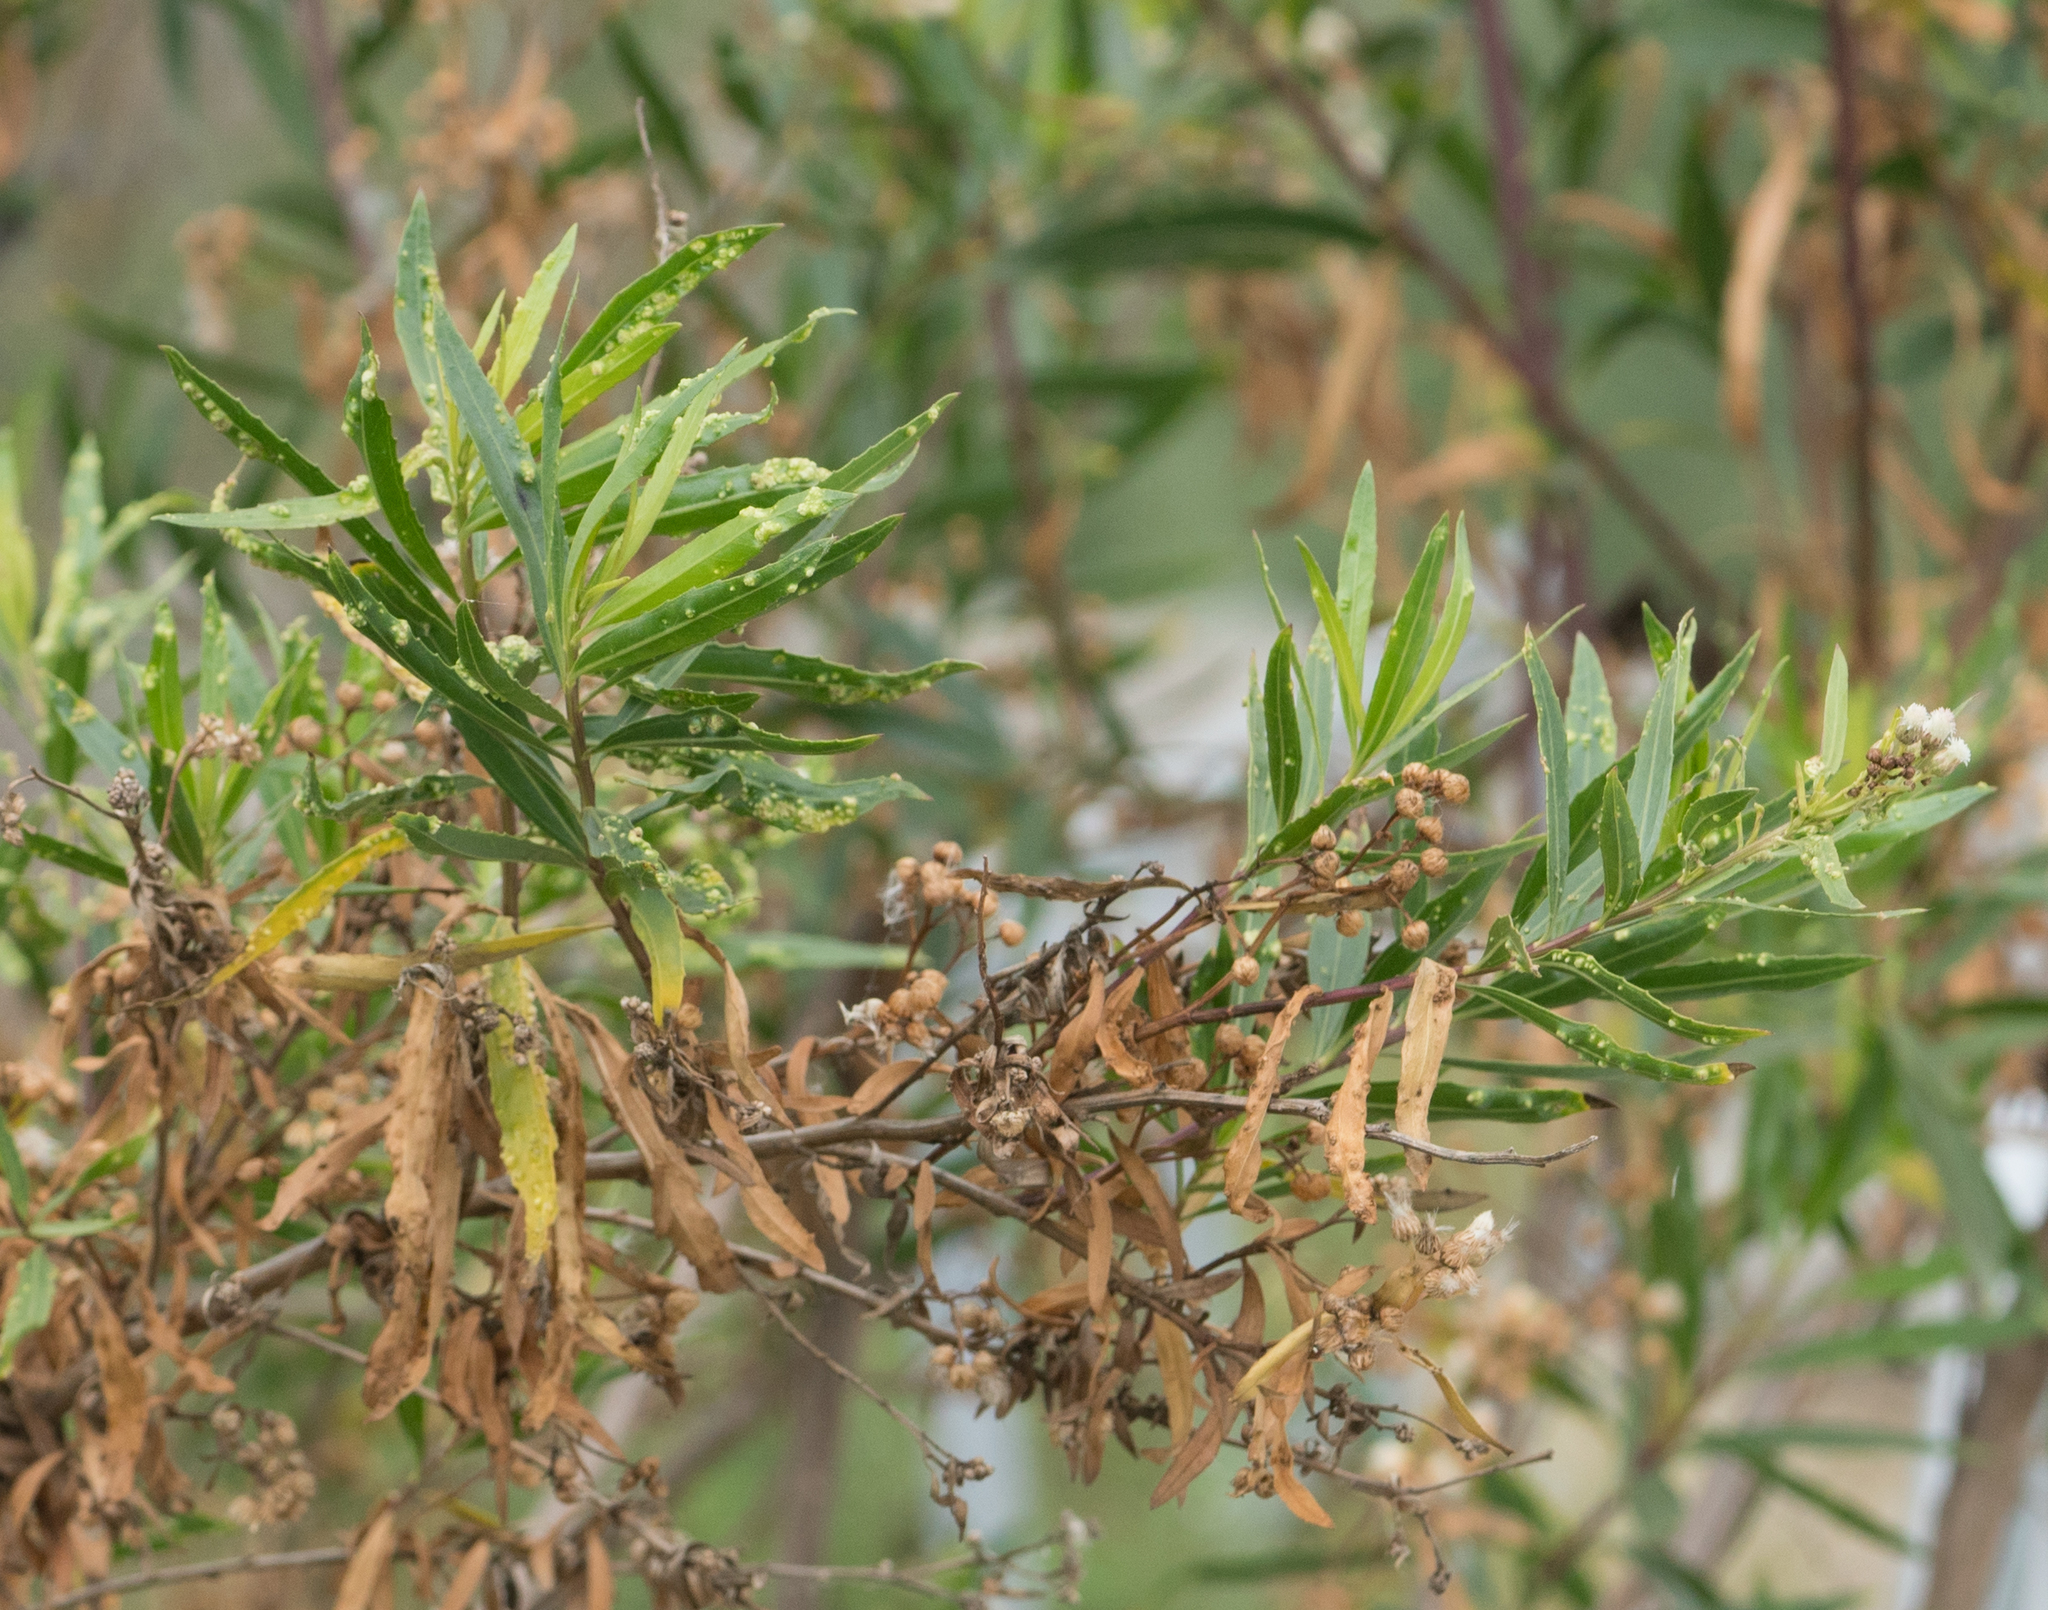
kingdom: Animalia
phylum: Arthropoda
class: Arachnida
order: Trombidiformes
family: Eriophyidae
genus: Aceria
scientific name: Aceria
